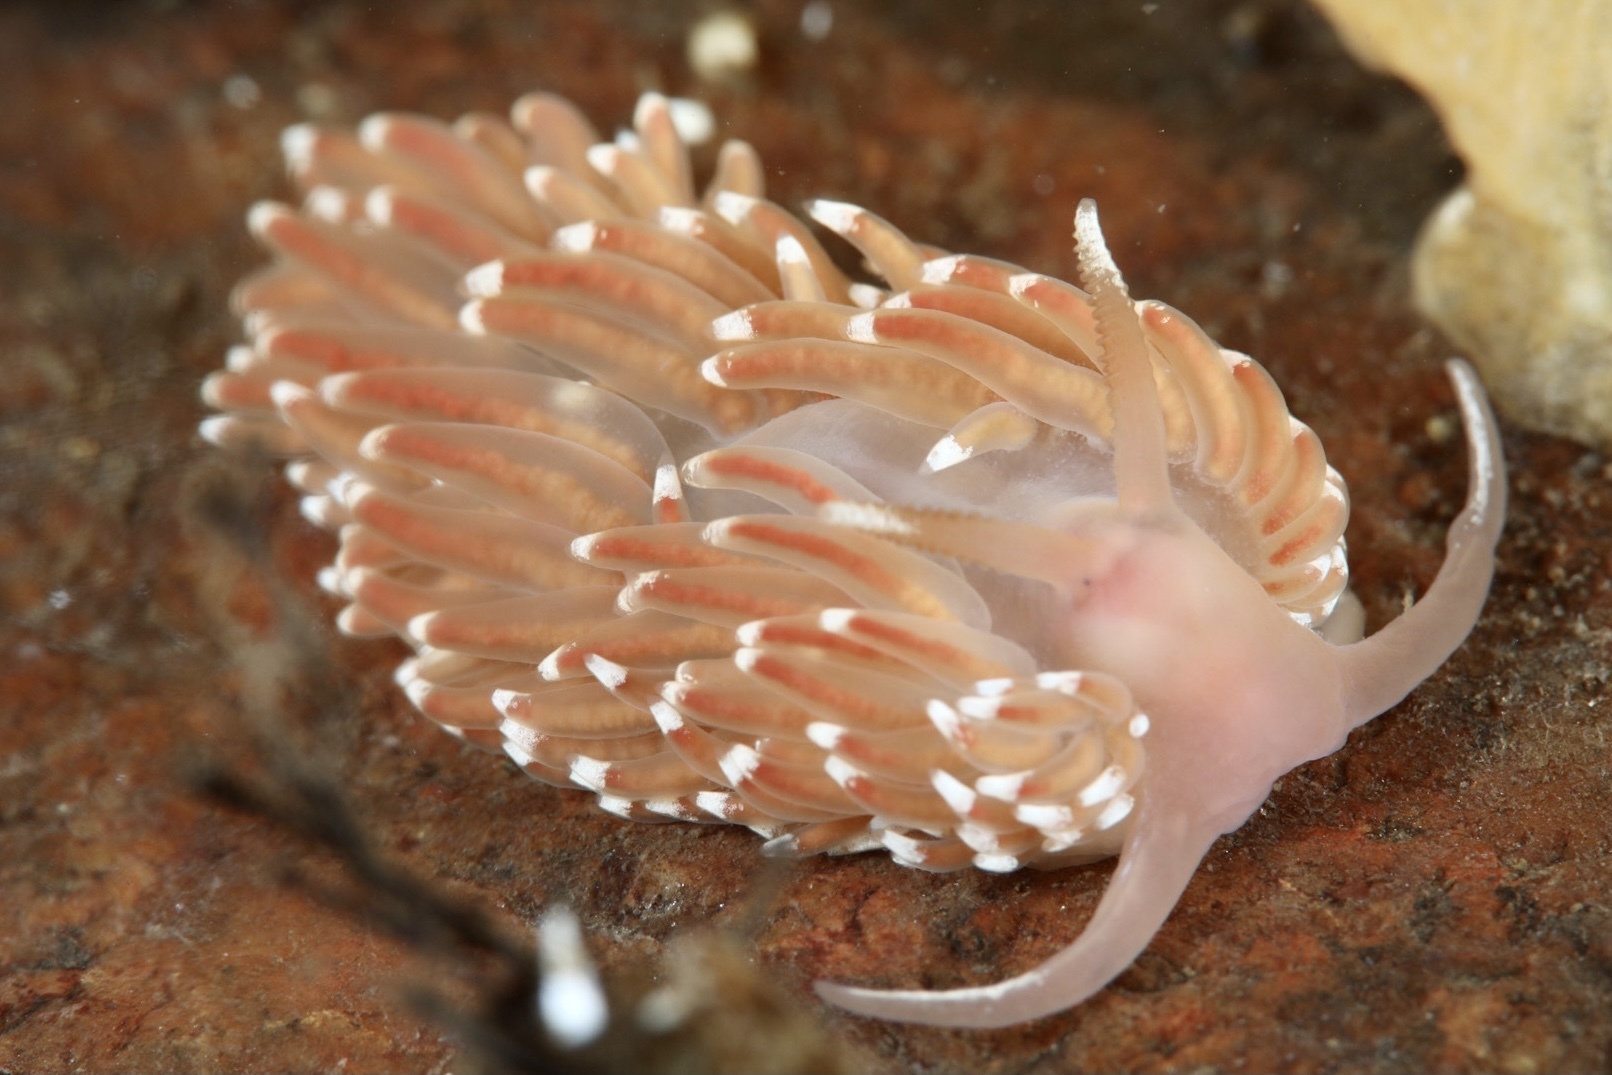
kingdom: Animalia
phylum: Mollusca
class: Gastropoda
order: Nudibranchia
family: Facelinidae
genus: Facelina
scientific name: Facelina bostoniensis
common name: Boston facelina
